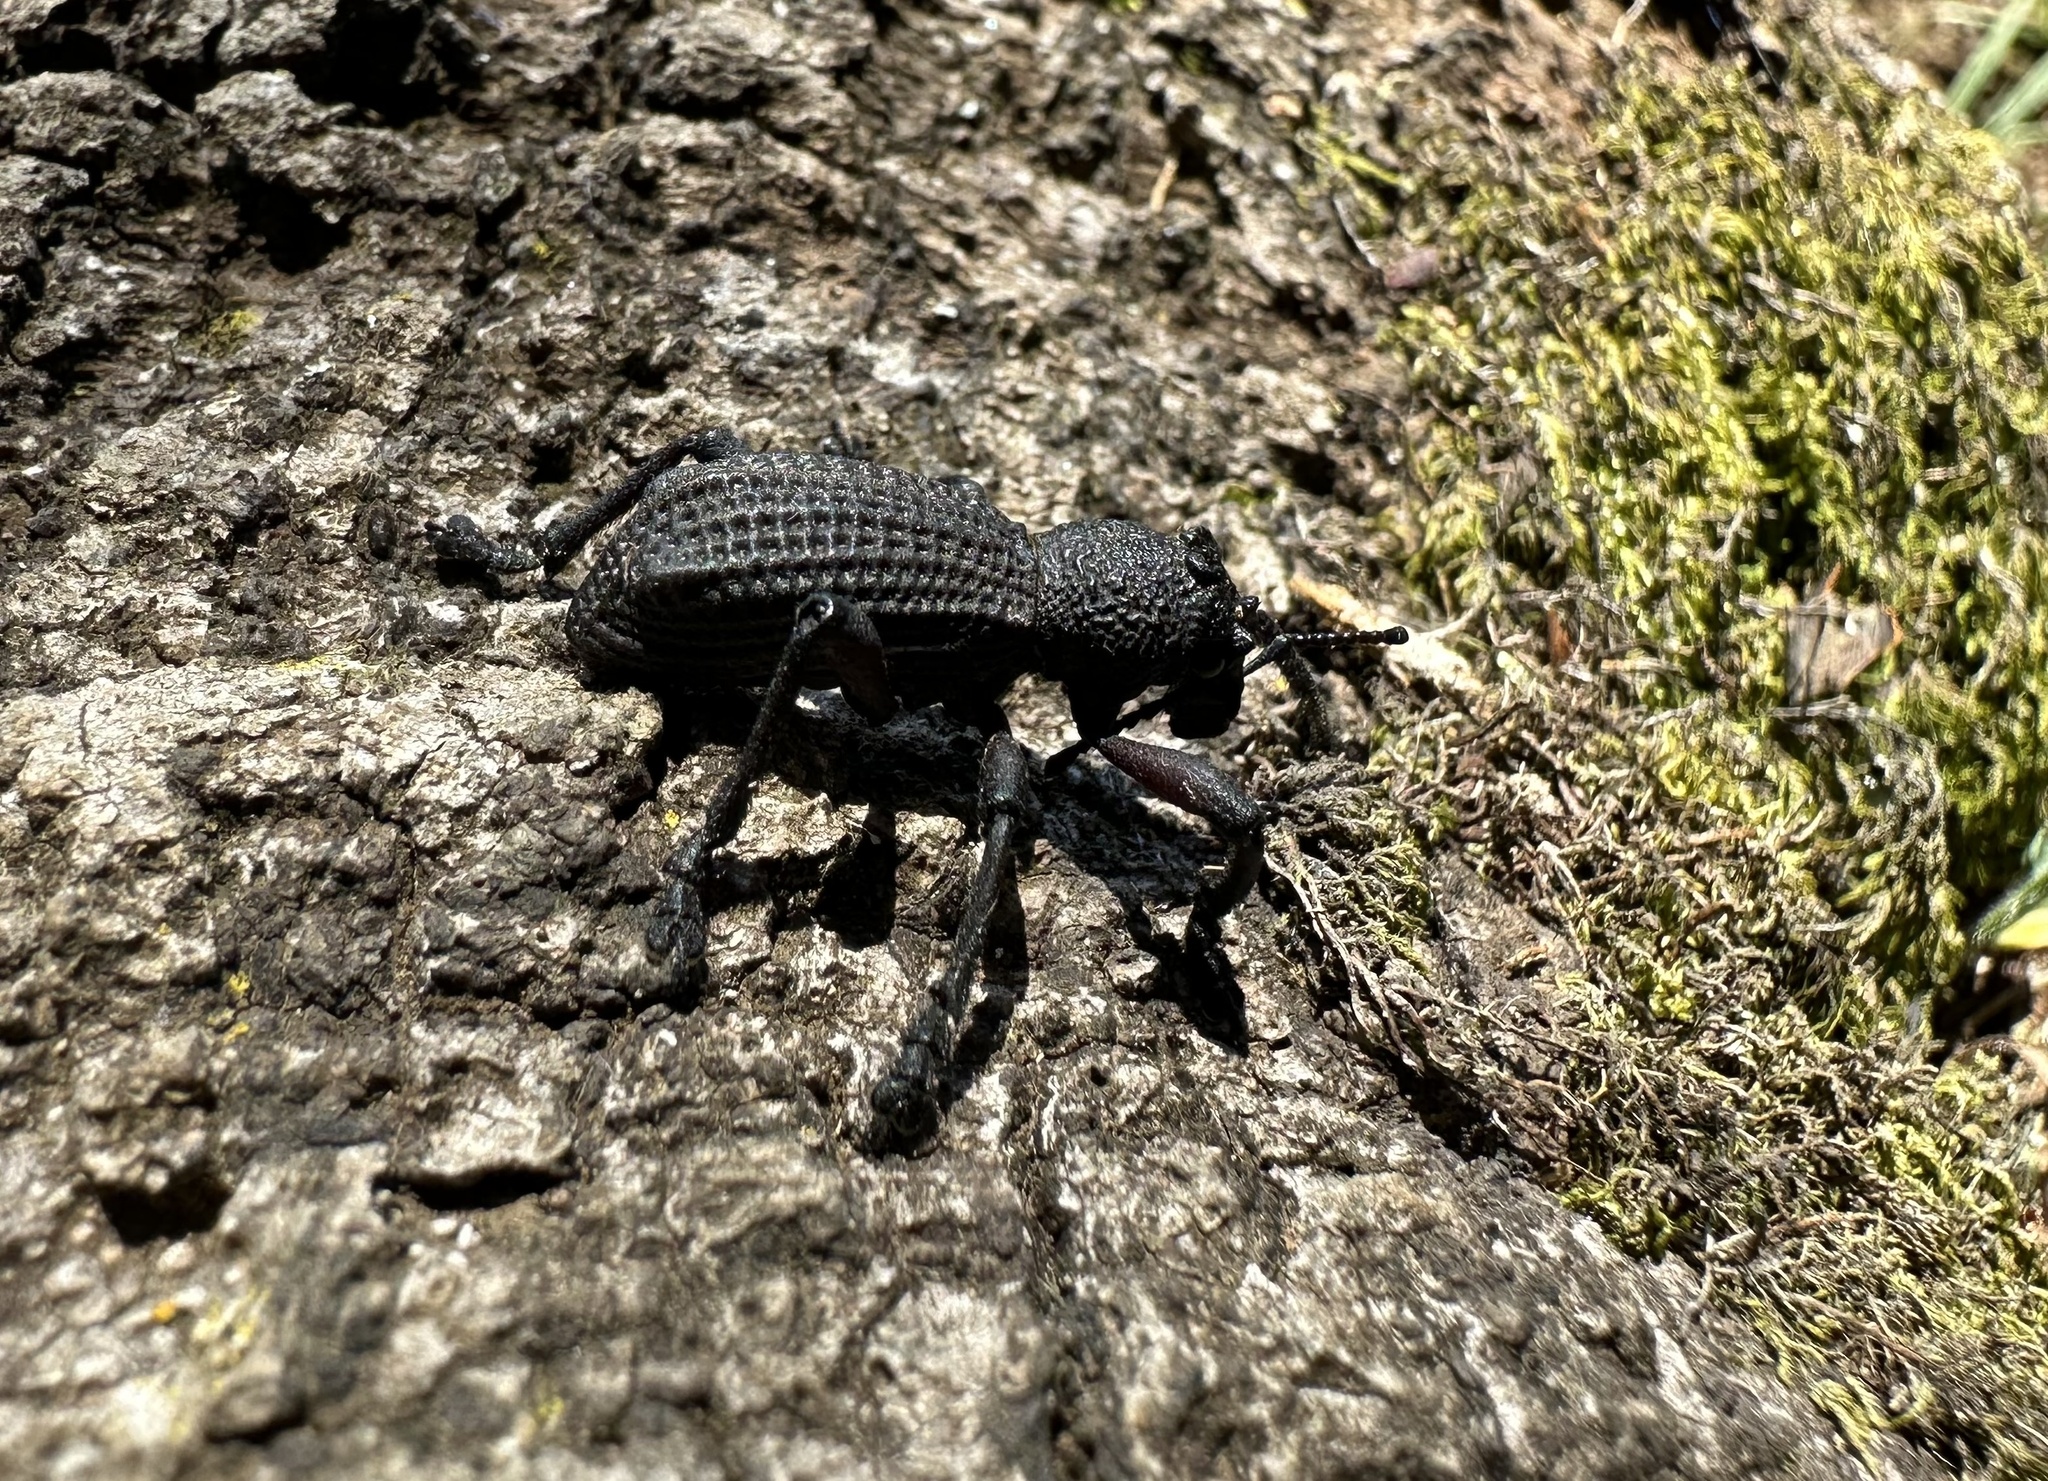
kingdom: Animalia
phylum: Arthropoda
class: Insecta
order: Coleoptera
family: Curculionidae
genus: Aegorhinus
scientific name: Aegorhinus
